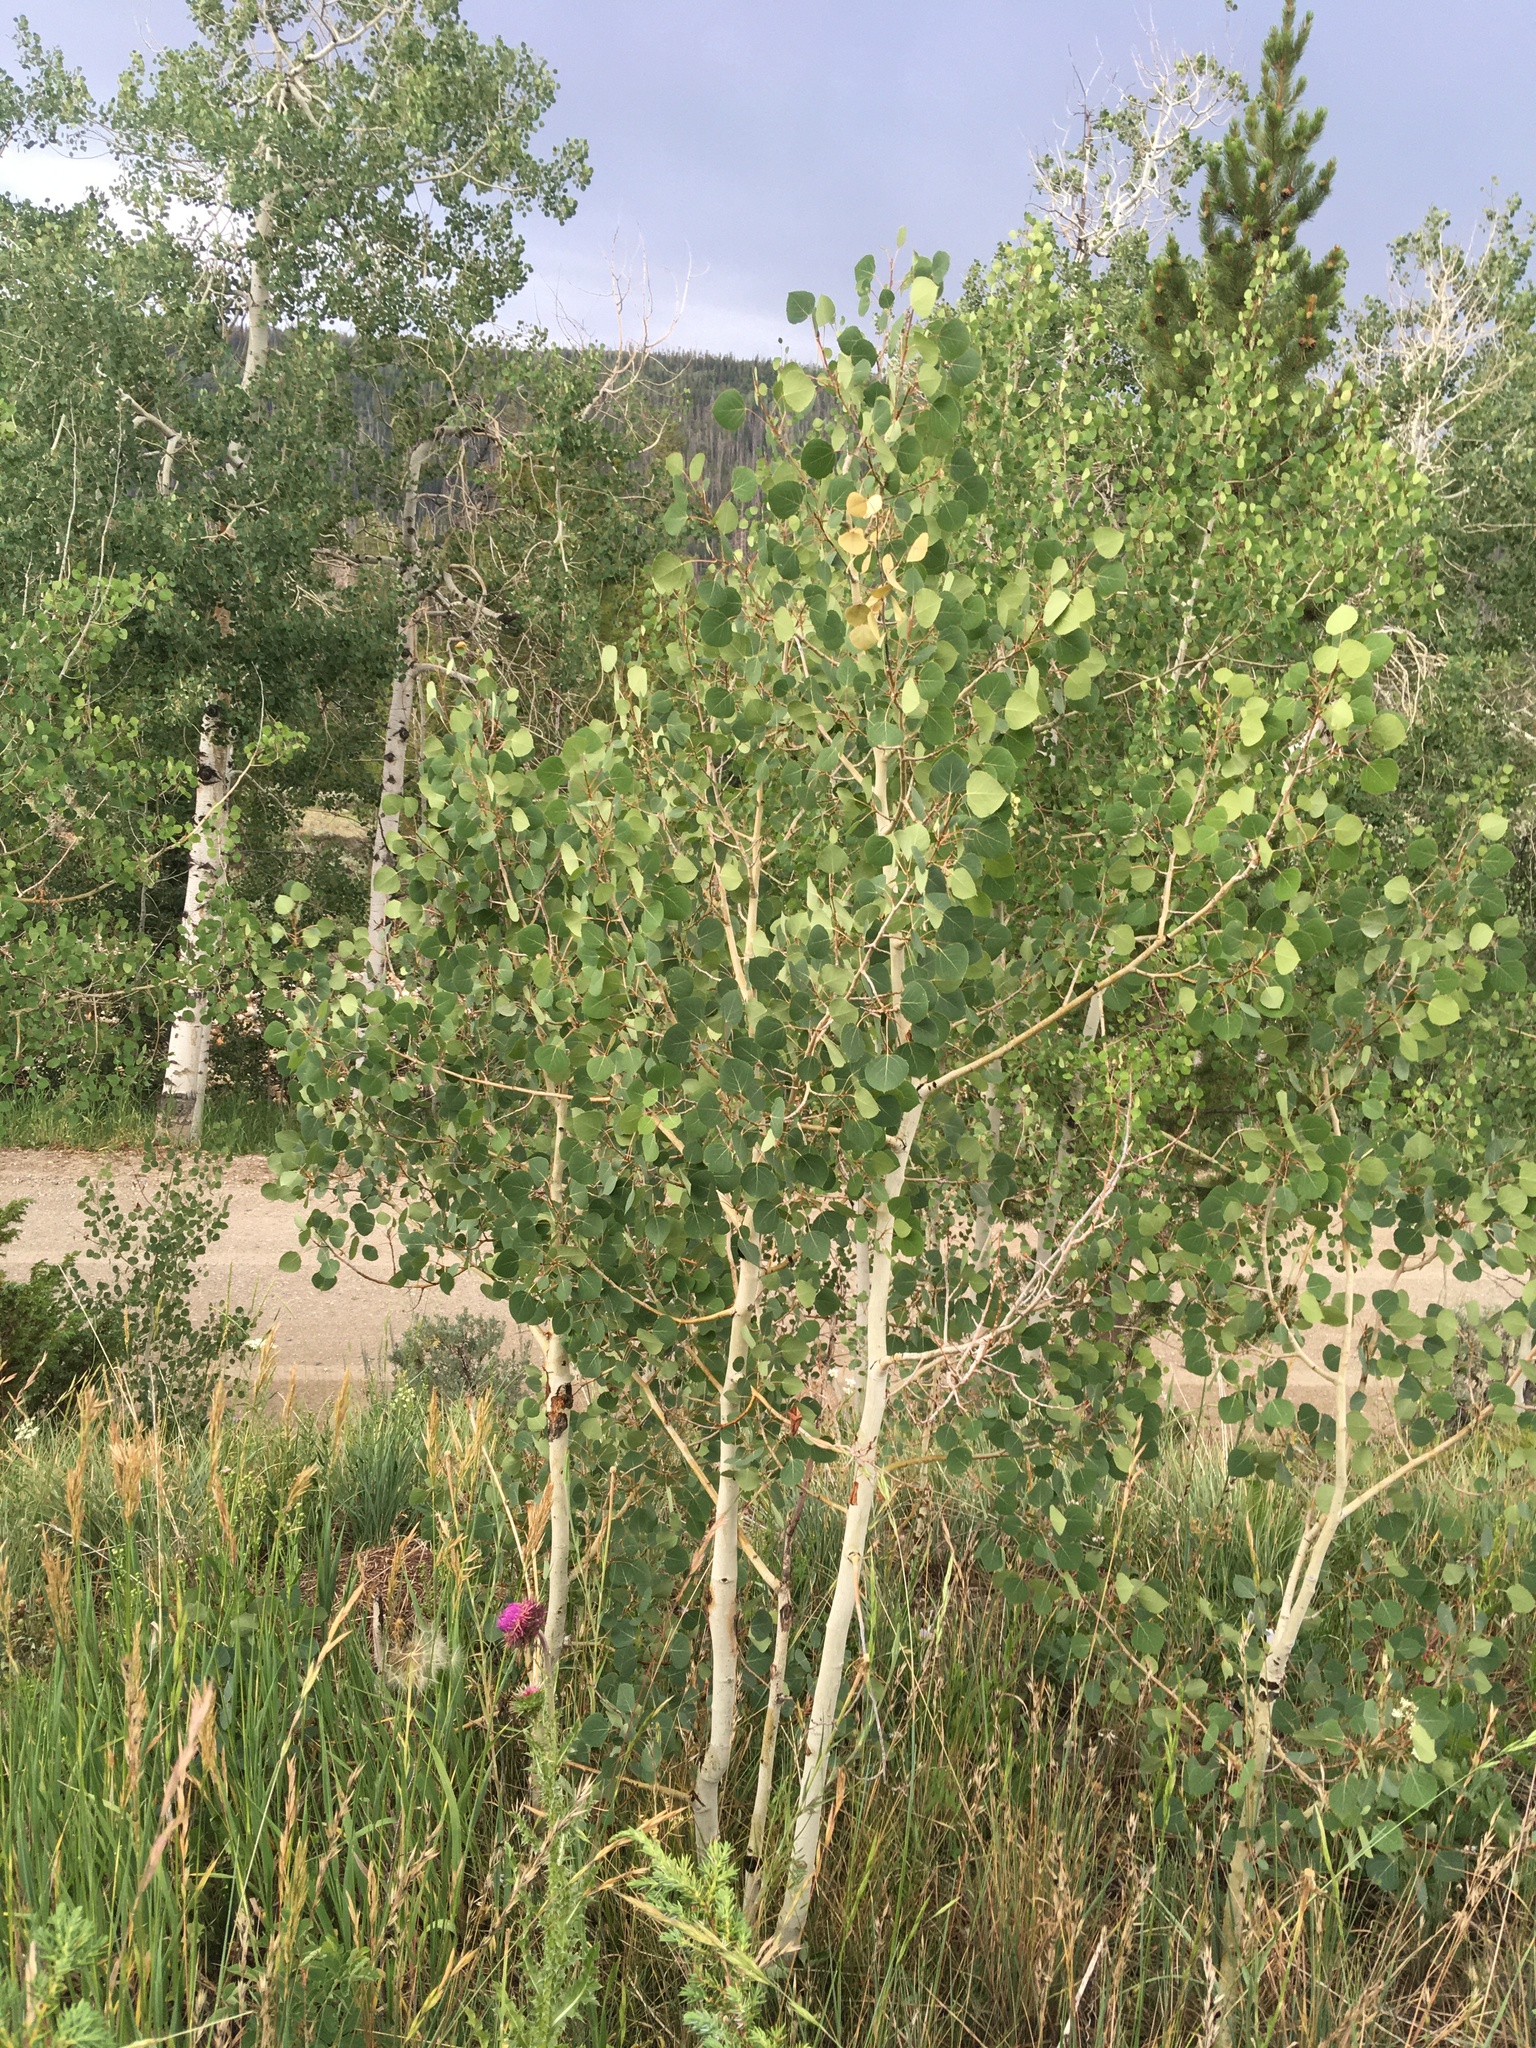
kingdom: Plantae
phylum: Tracheophyta
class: Magnoliopsida
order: Malpighiales
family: Salicaceae
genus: Populus
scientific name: Populus tremuloides
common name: Quaking aspen
